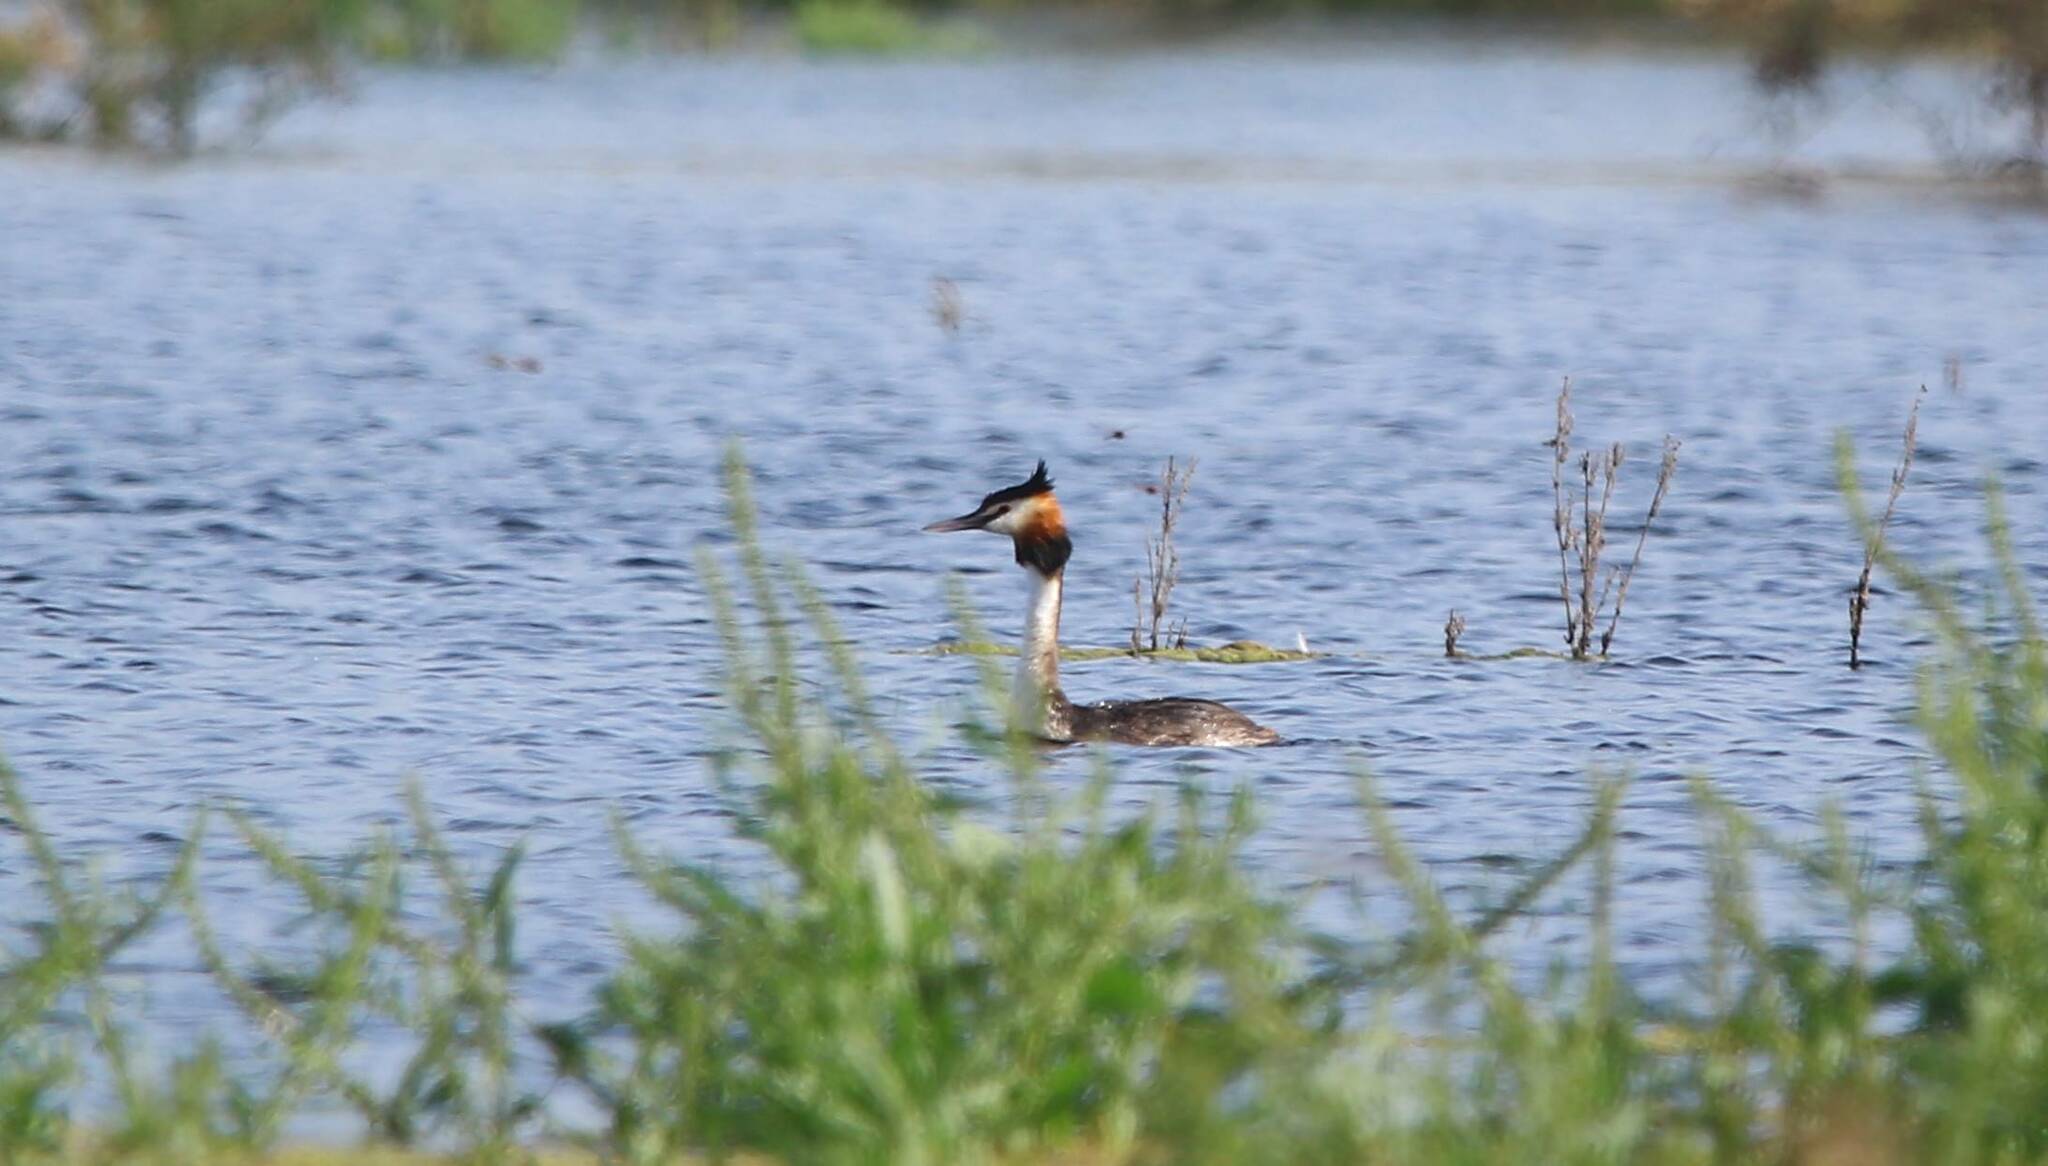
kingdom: Animalia
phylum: Chordata
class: Aves
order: Podicipediformes
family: Podicipedidae
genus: Podiceps
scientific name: Podiceps cristatus
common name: Great crested grebe
